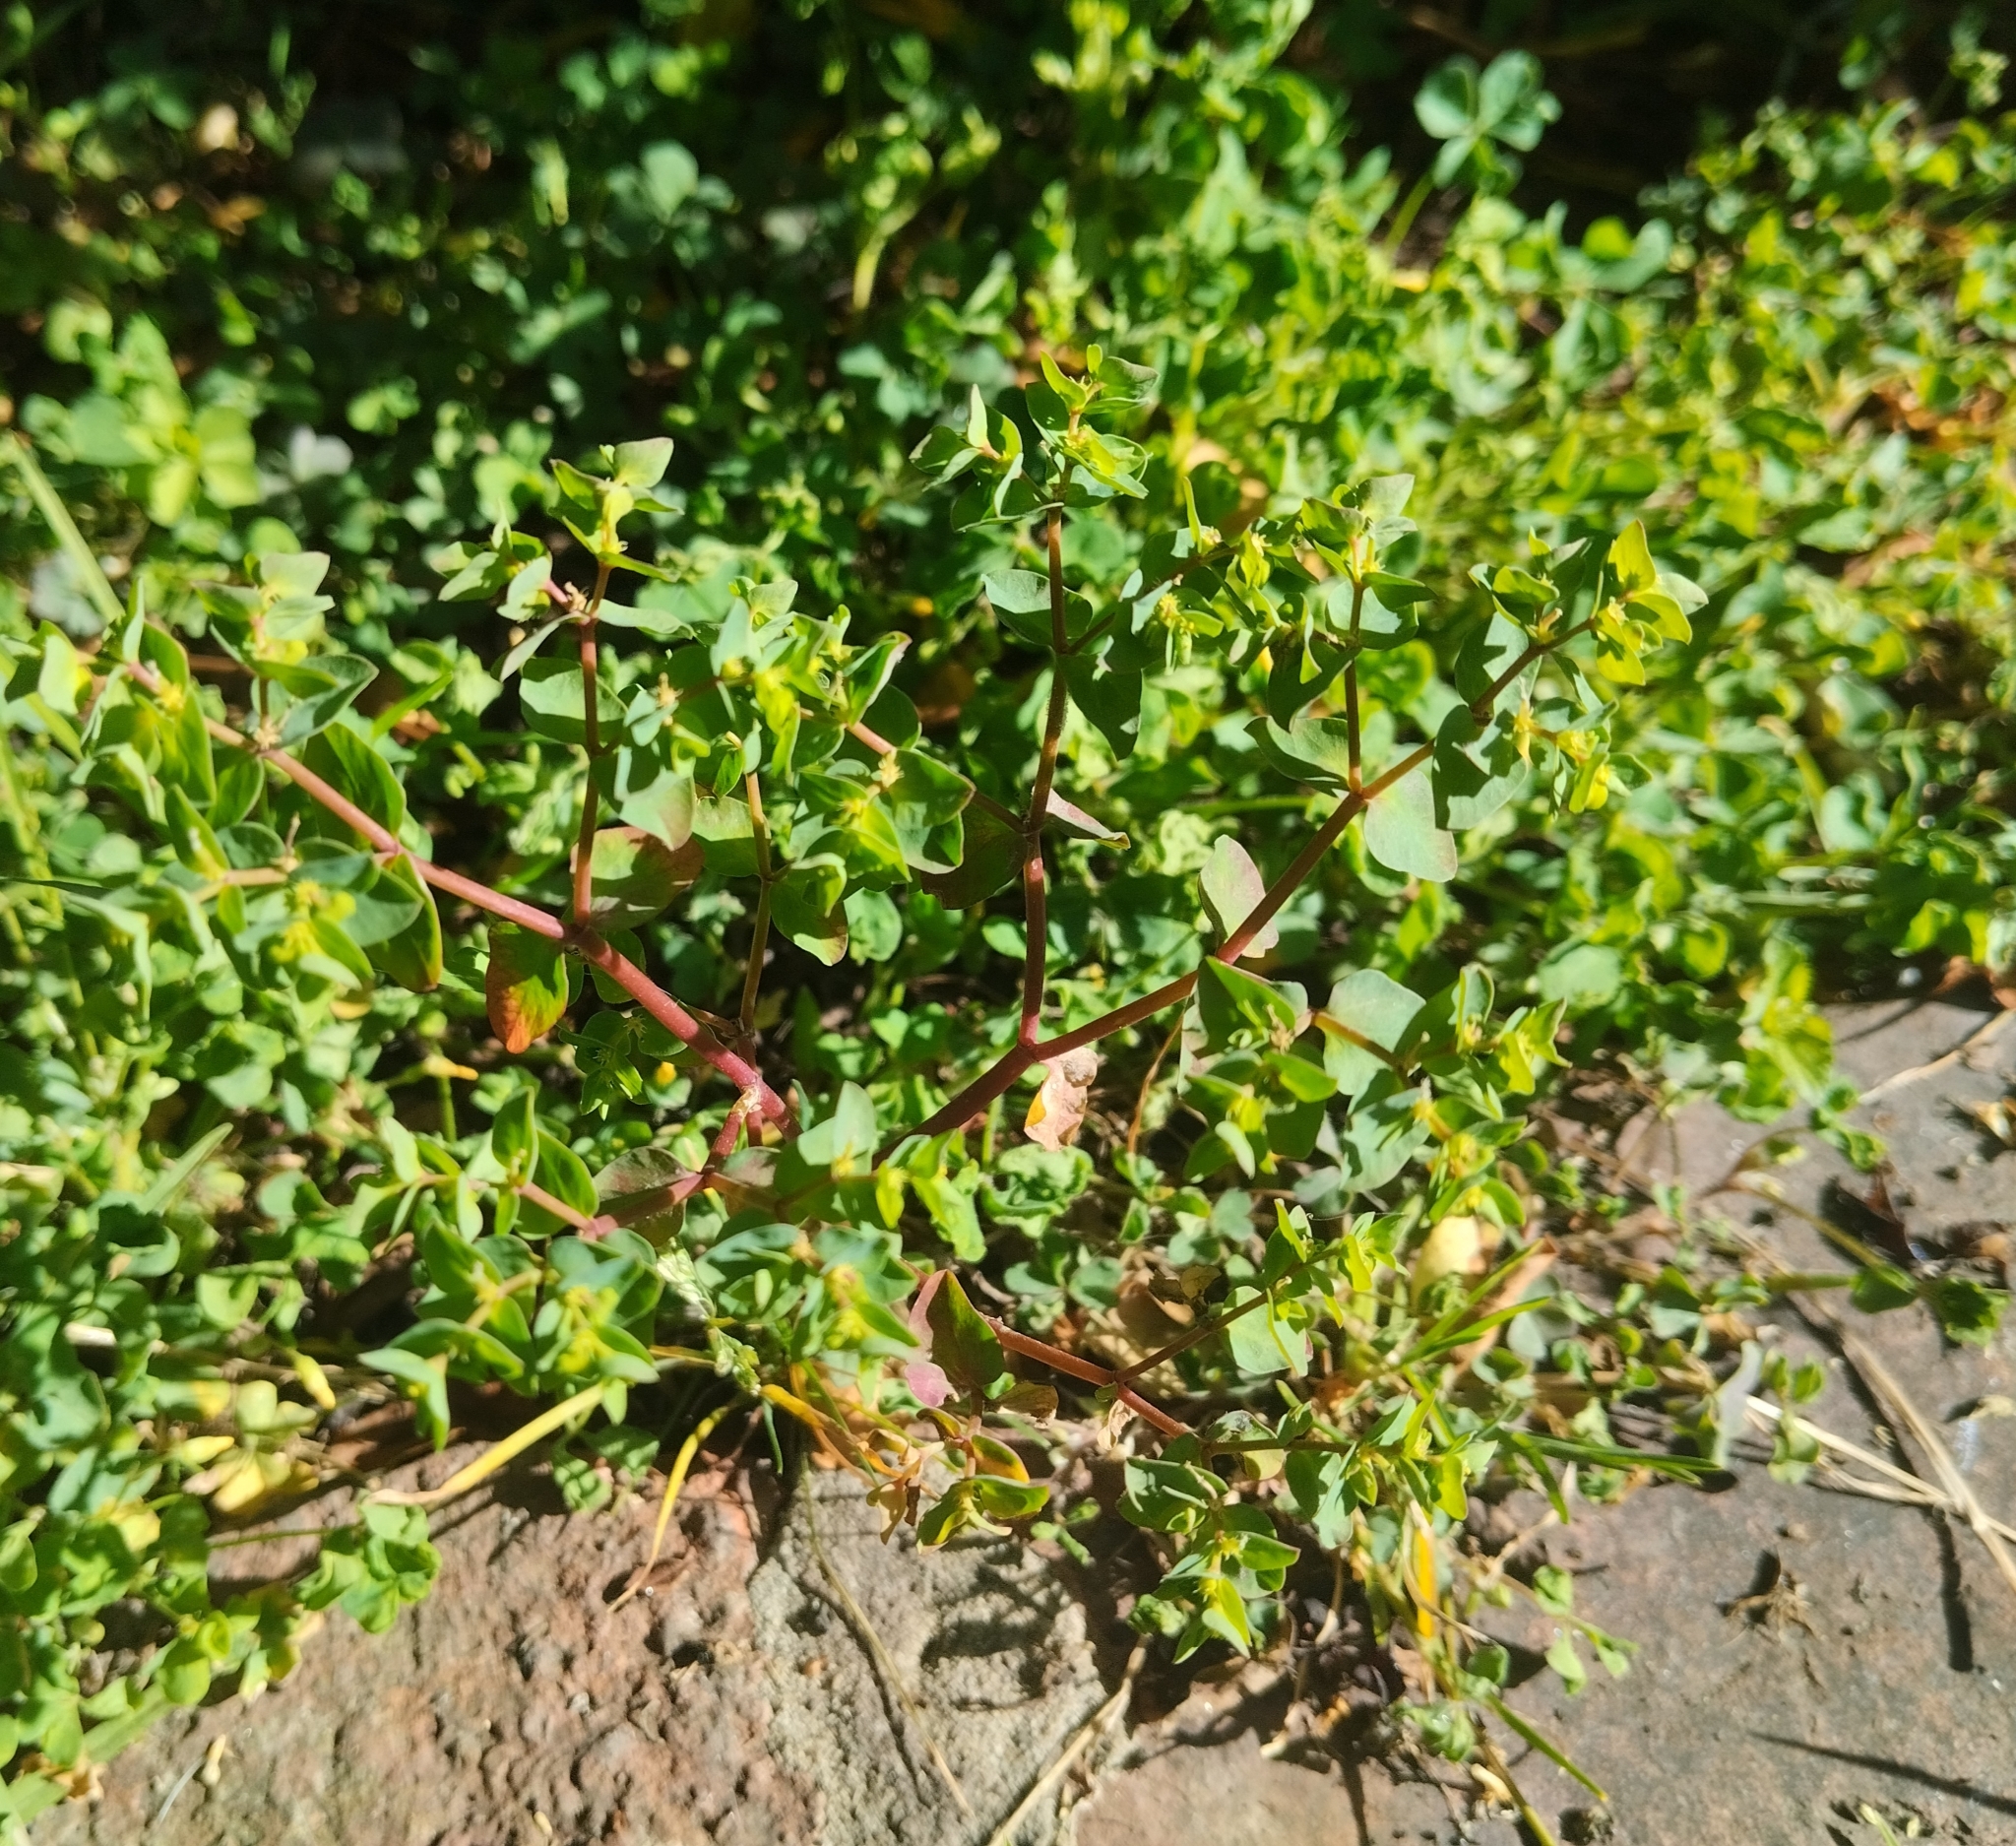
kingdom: Plantae
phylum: Tracheophyta
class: Magnoliopsida
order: Malpighiales
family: Euphorbiaceae
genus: Euphorbia
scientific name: Euphorbia peplus
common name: Petty spurge
